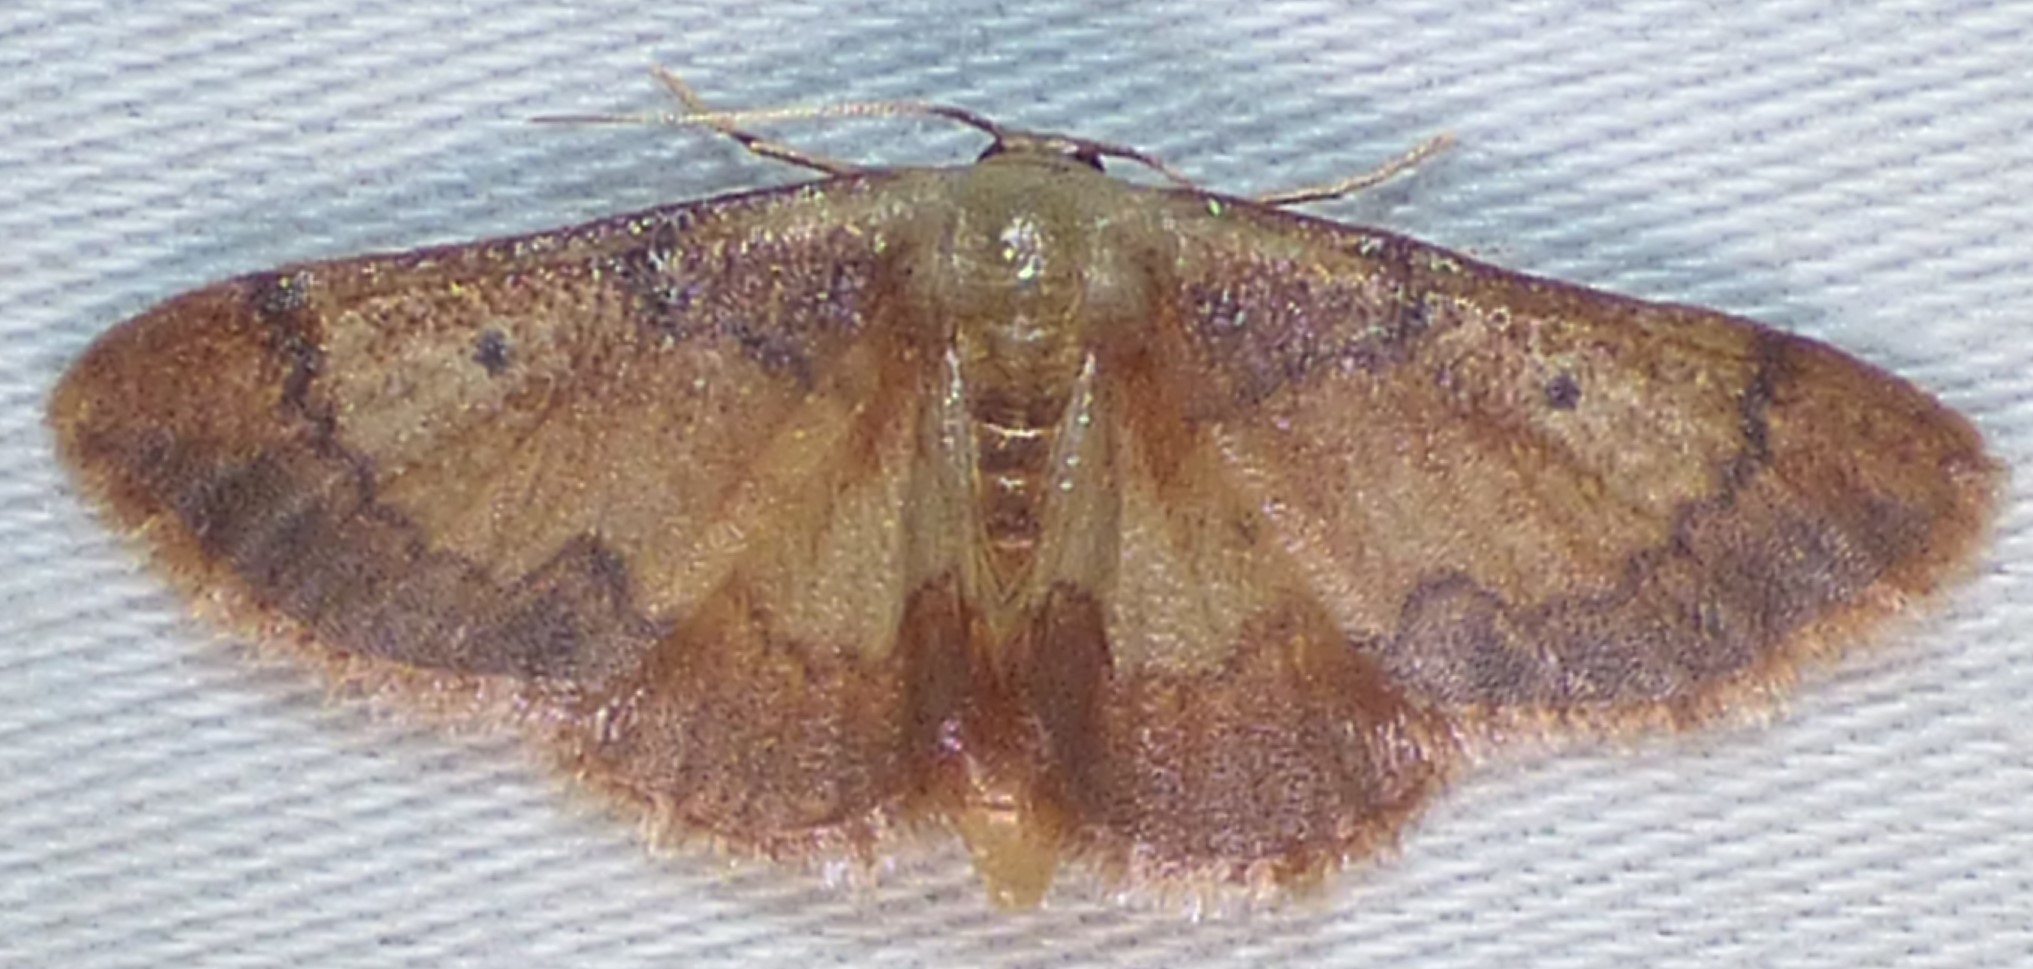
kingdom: Animalia
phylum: Arthropoda
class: Insecta
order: Lepidoptera
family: Geometridae
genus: Idaea
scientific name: Idaea demissaria
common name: Red-bordered wave
